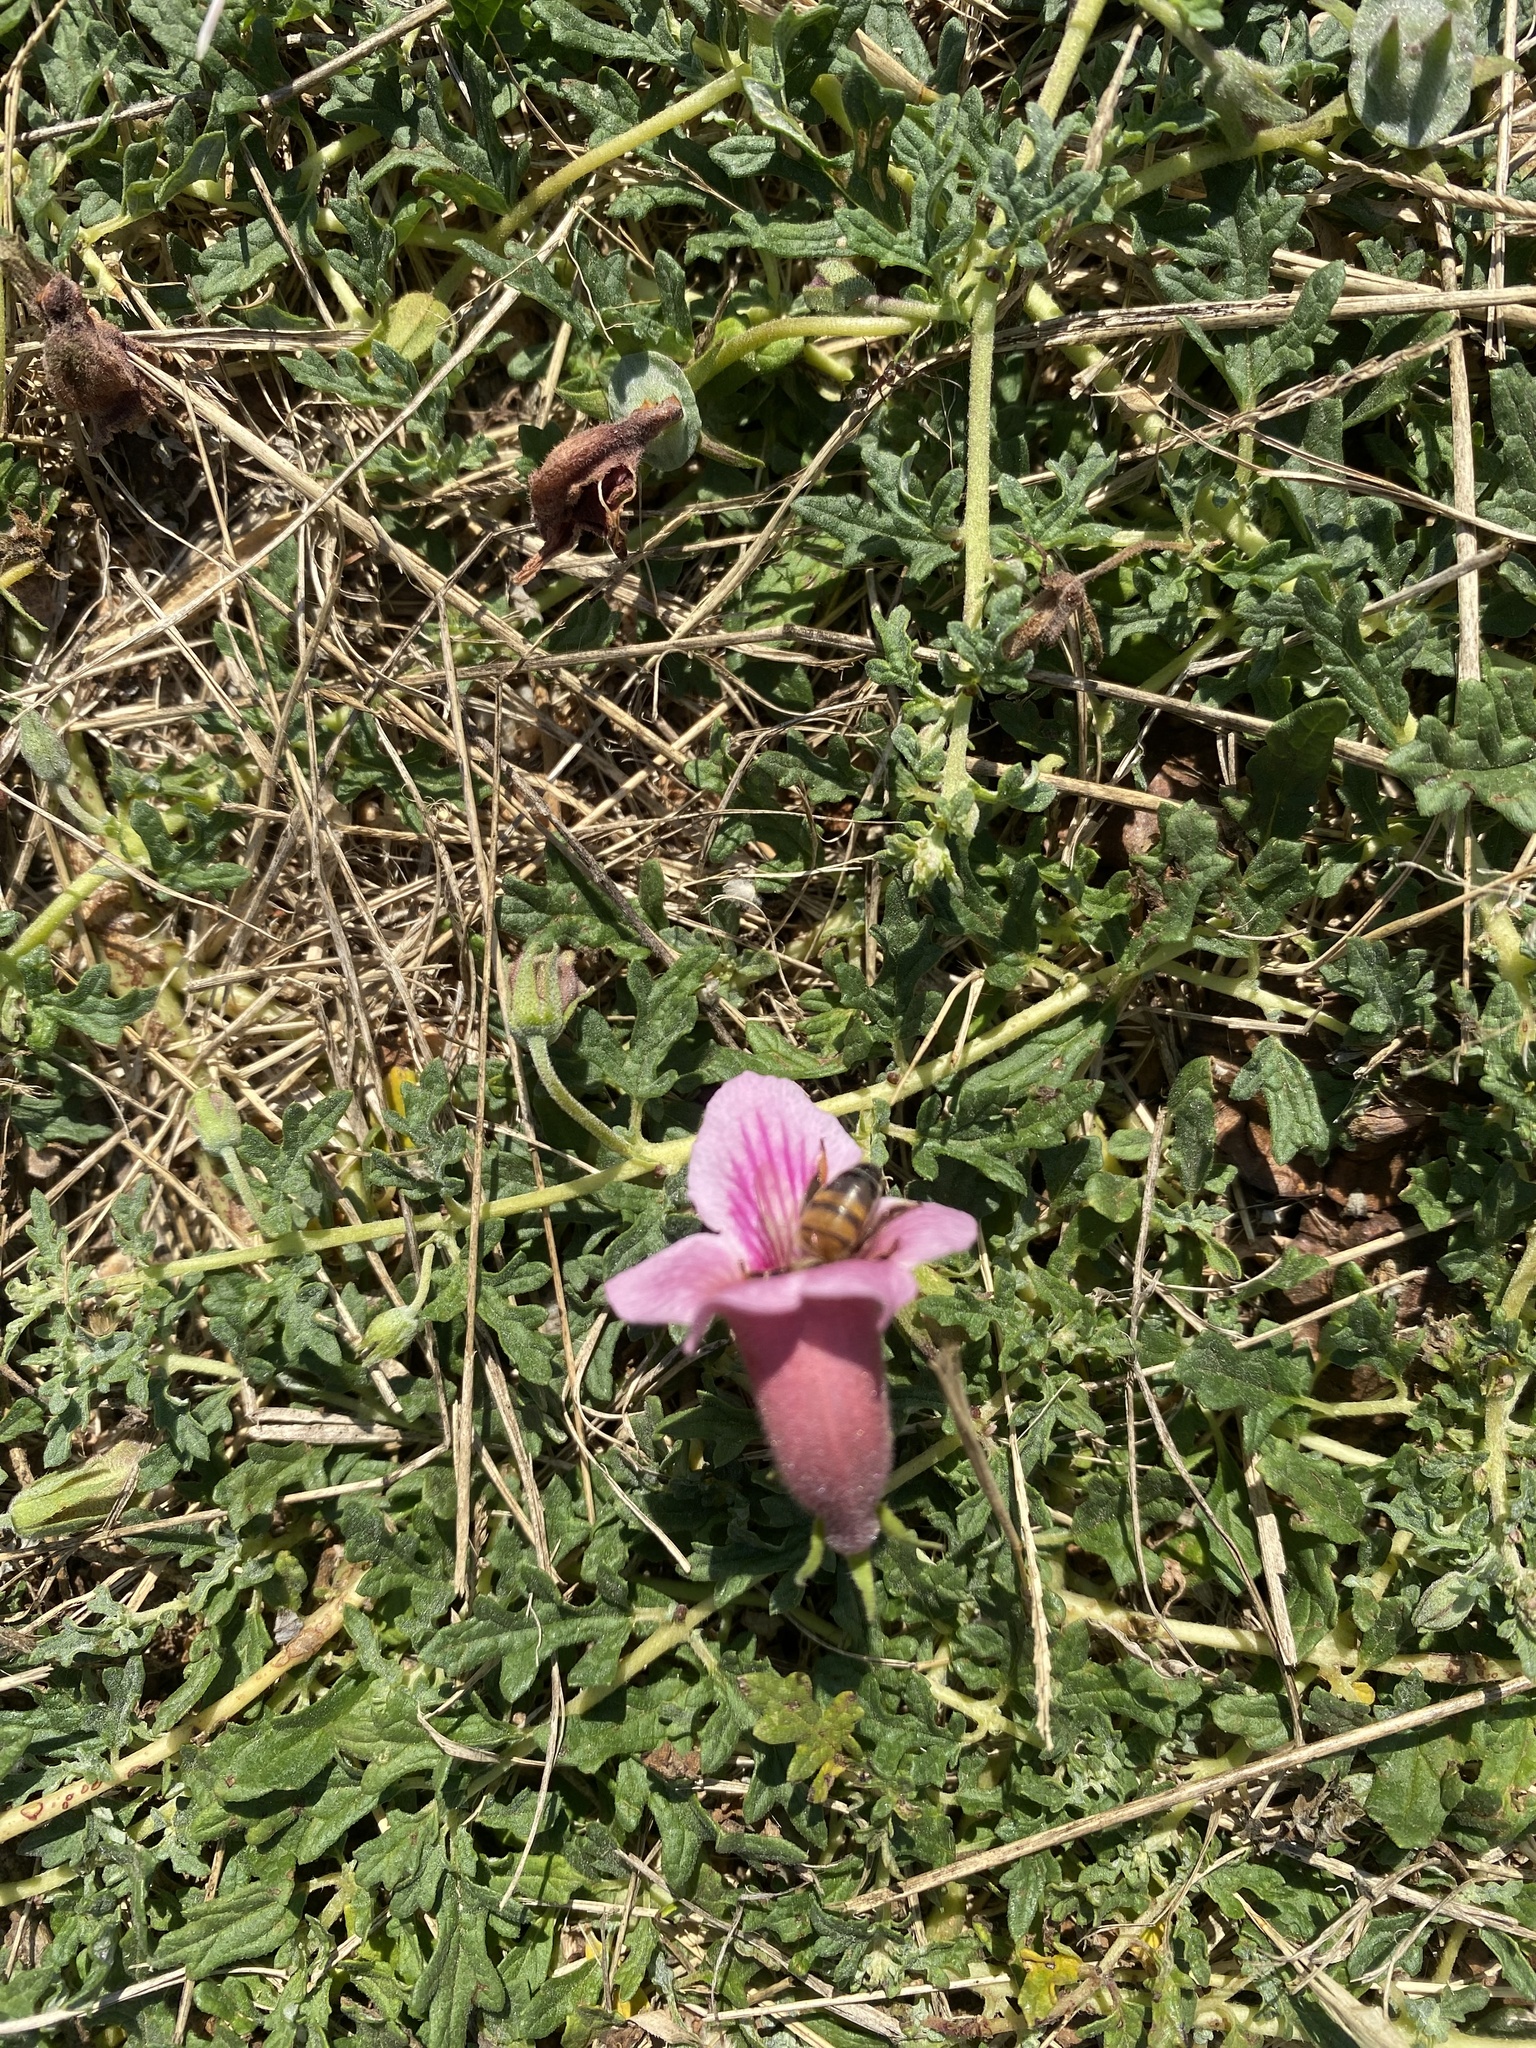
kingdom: Plantae
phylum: Tracheophyta
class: Magnoliopsida
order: Lamiales
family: Pedaliaceae
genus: Dicerocaryum
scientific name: Dicerocaryum senecioides
